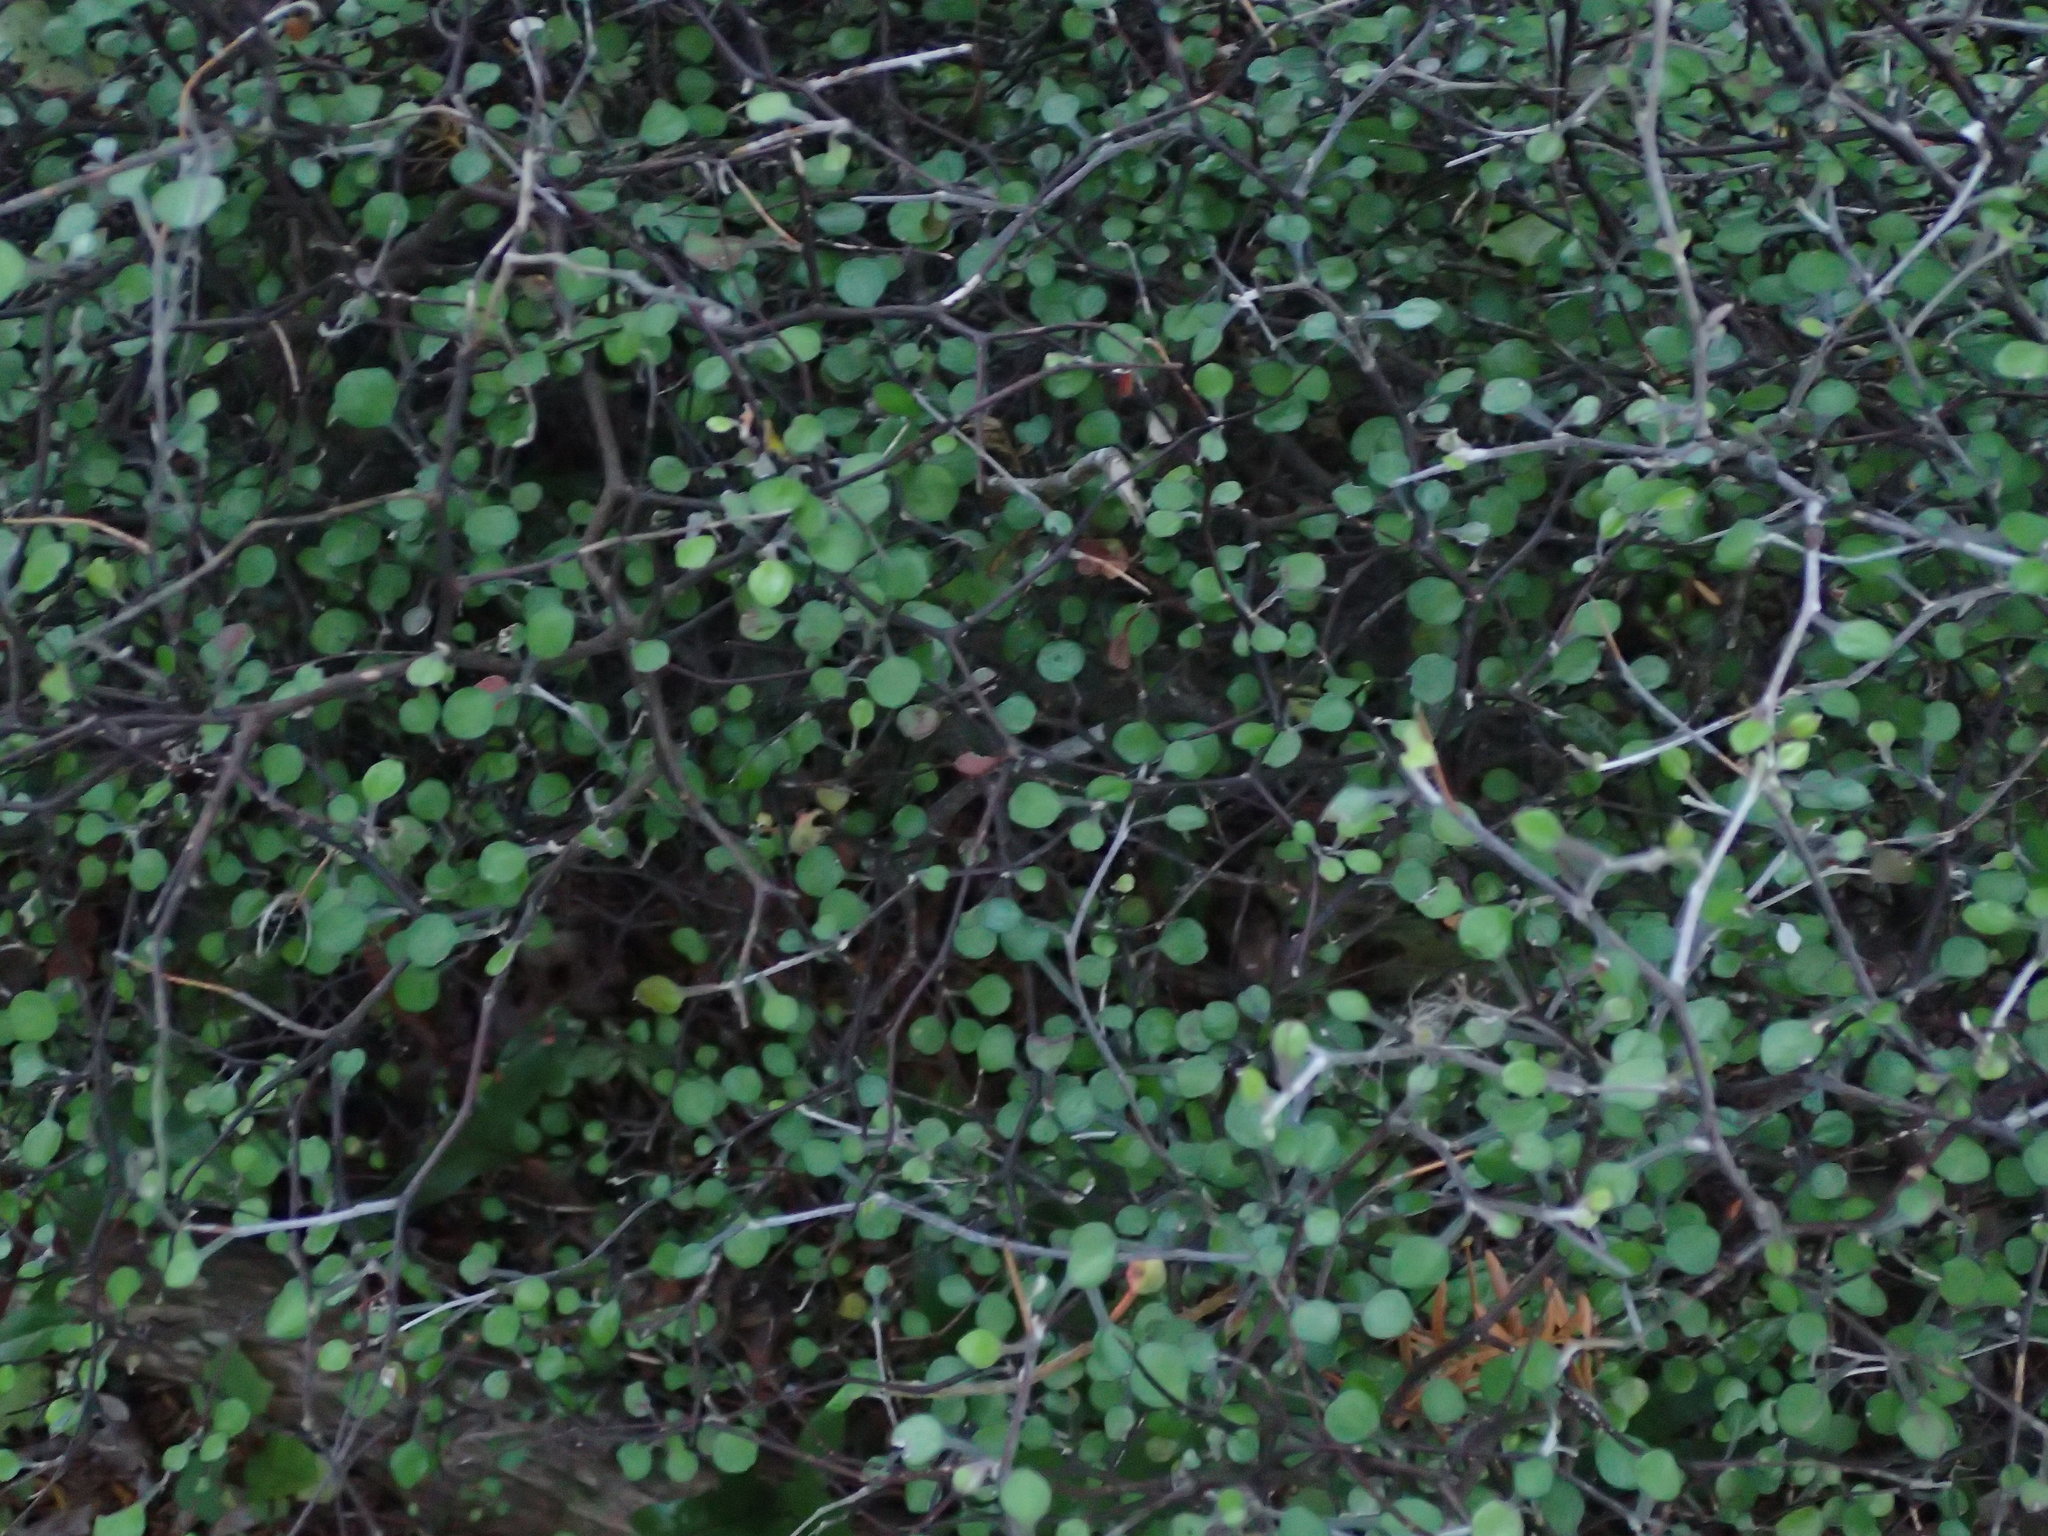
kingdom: Plantae
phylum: Tracheophyta
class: Magnoliopsida
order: Asterales
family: Argophyllaceae
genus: Corokia
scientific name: Corokia cotoneaster
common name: Wire nettingbush
